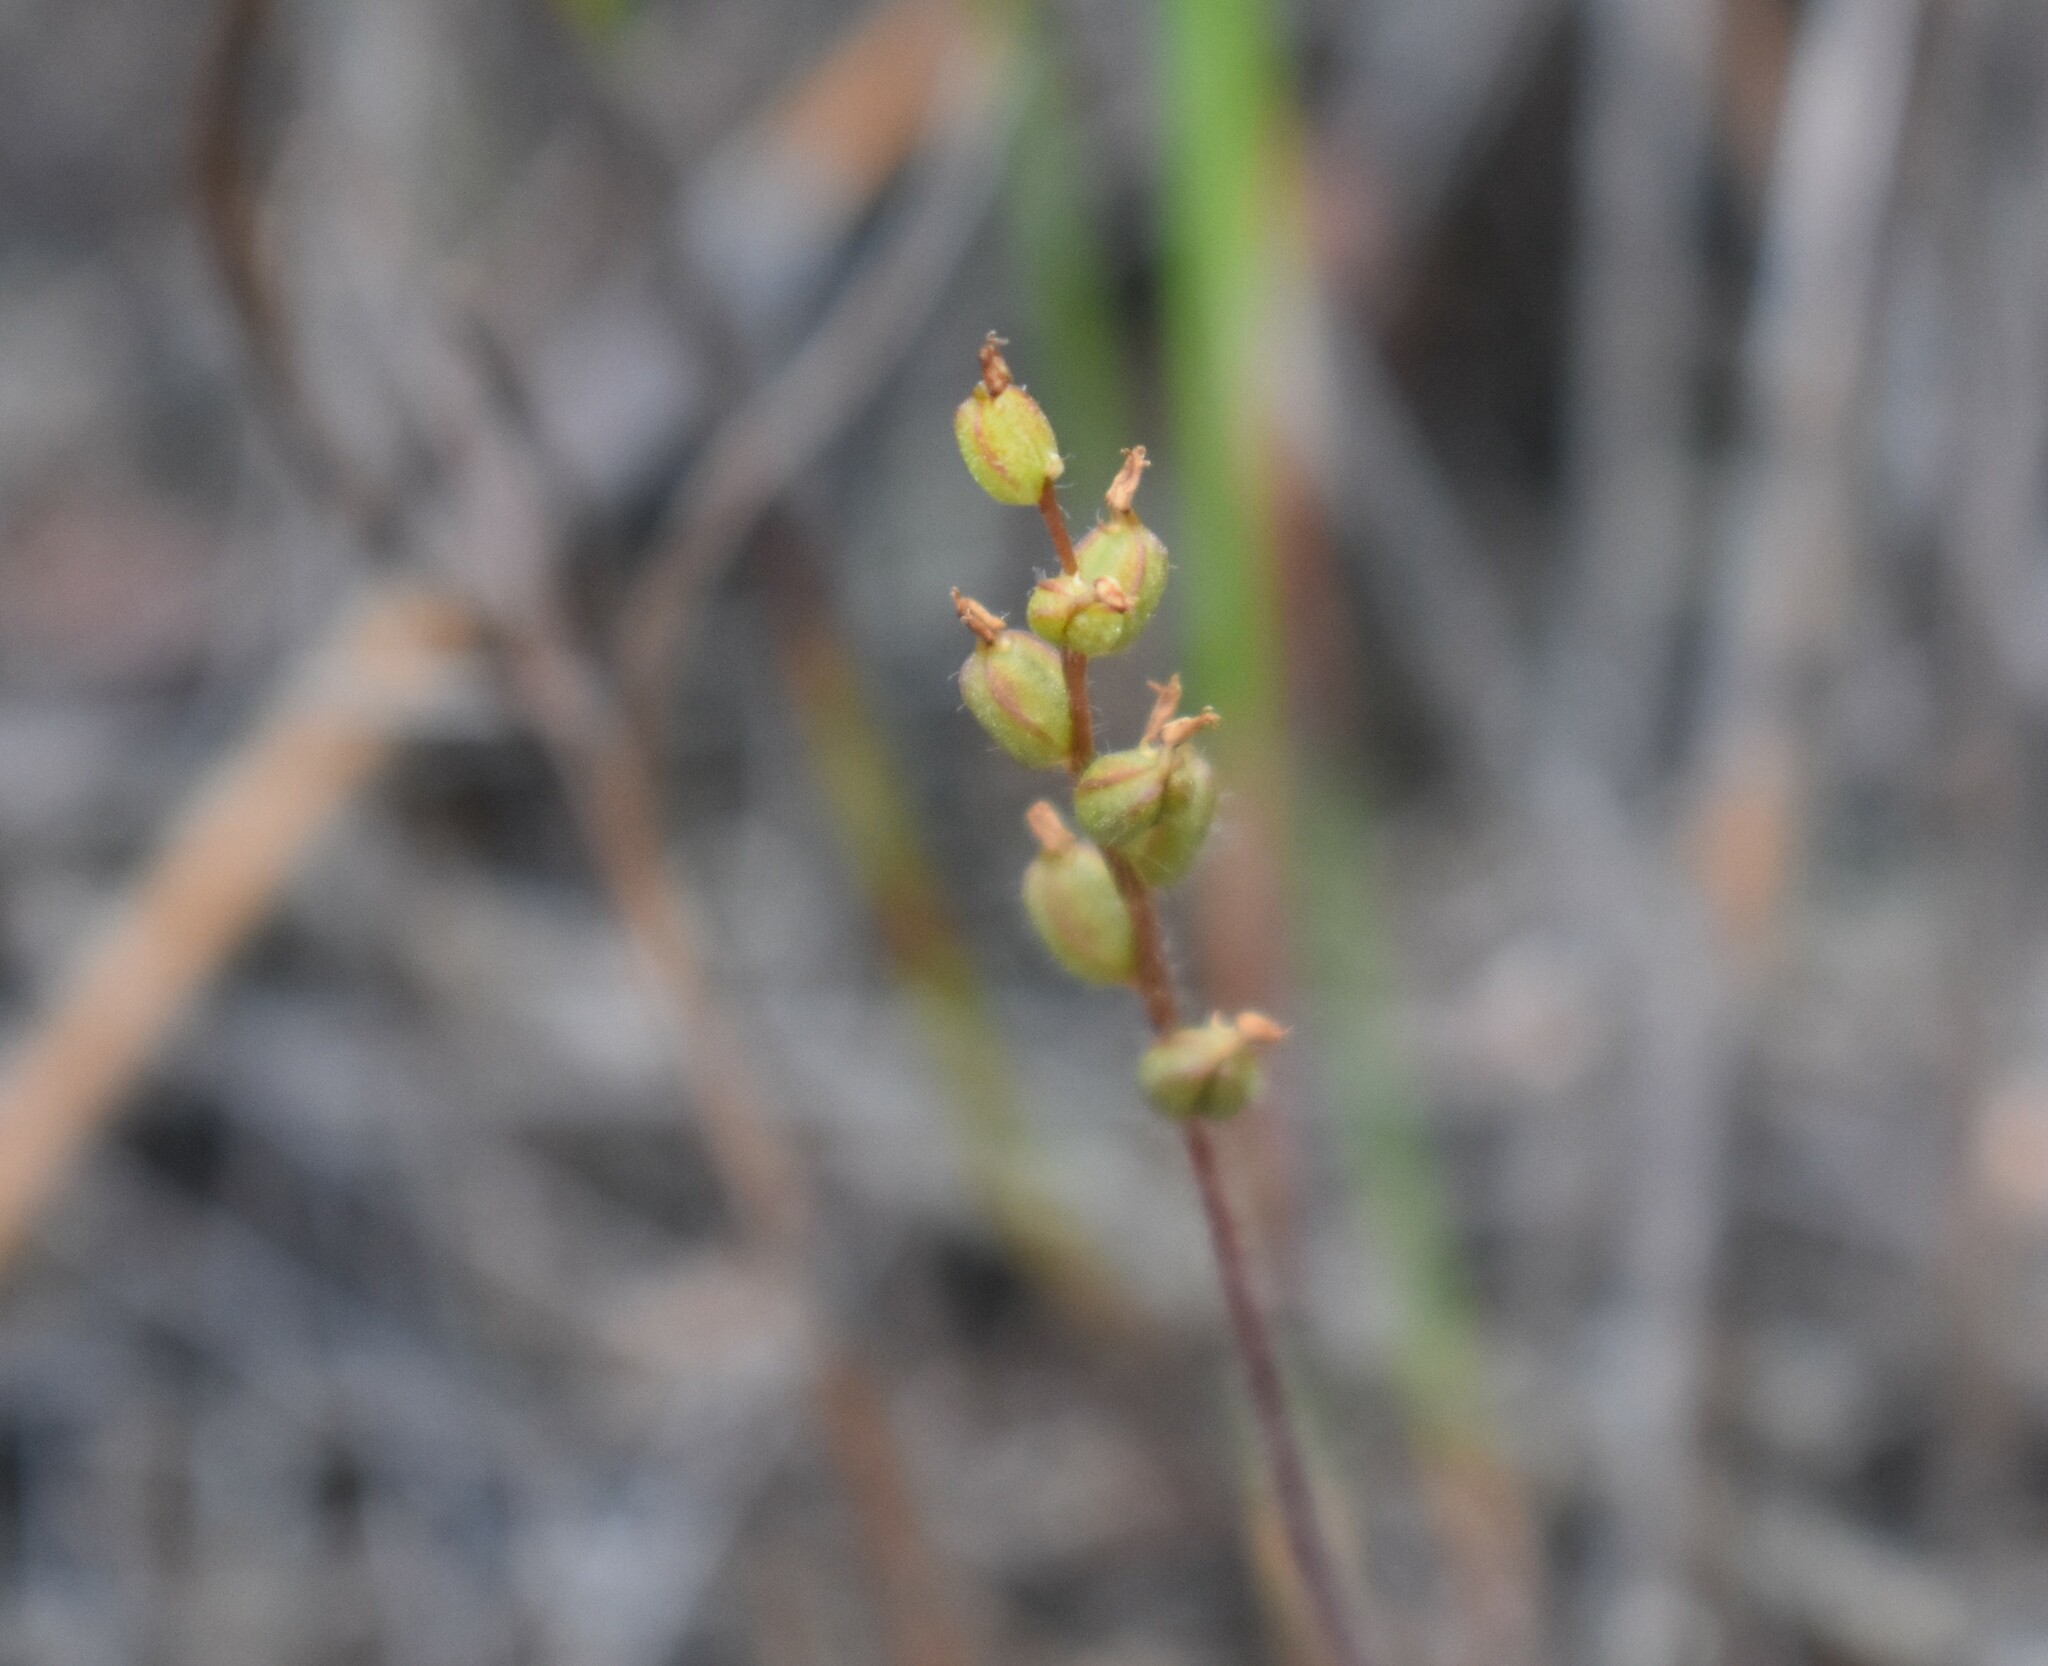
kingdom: Plantae
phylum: Tracheophyta
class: Liliopsida
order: Asparagales
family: Orchidaceae
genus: Holothrix
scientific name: Holothrix villosa
